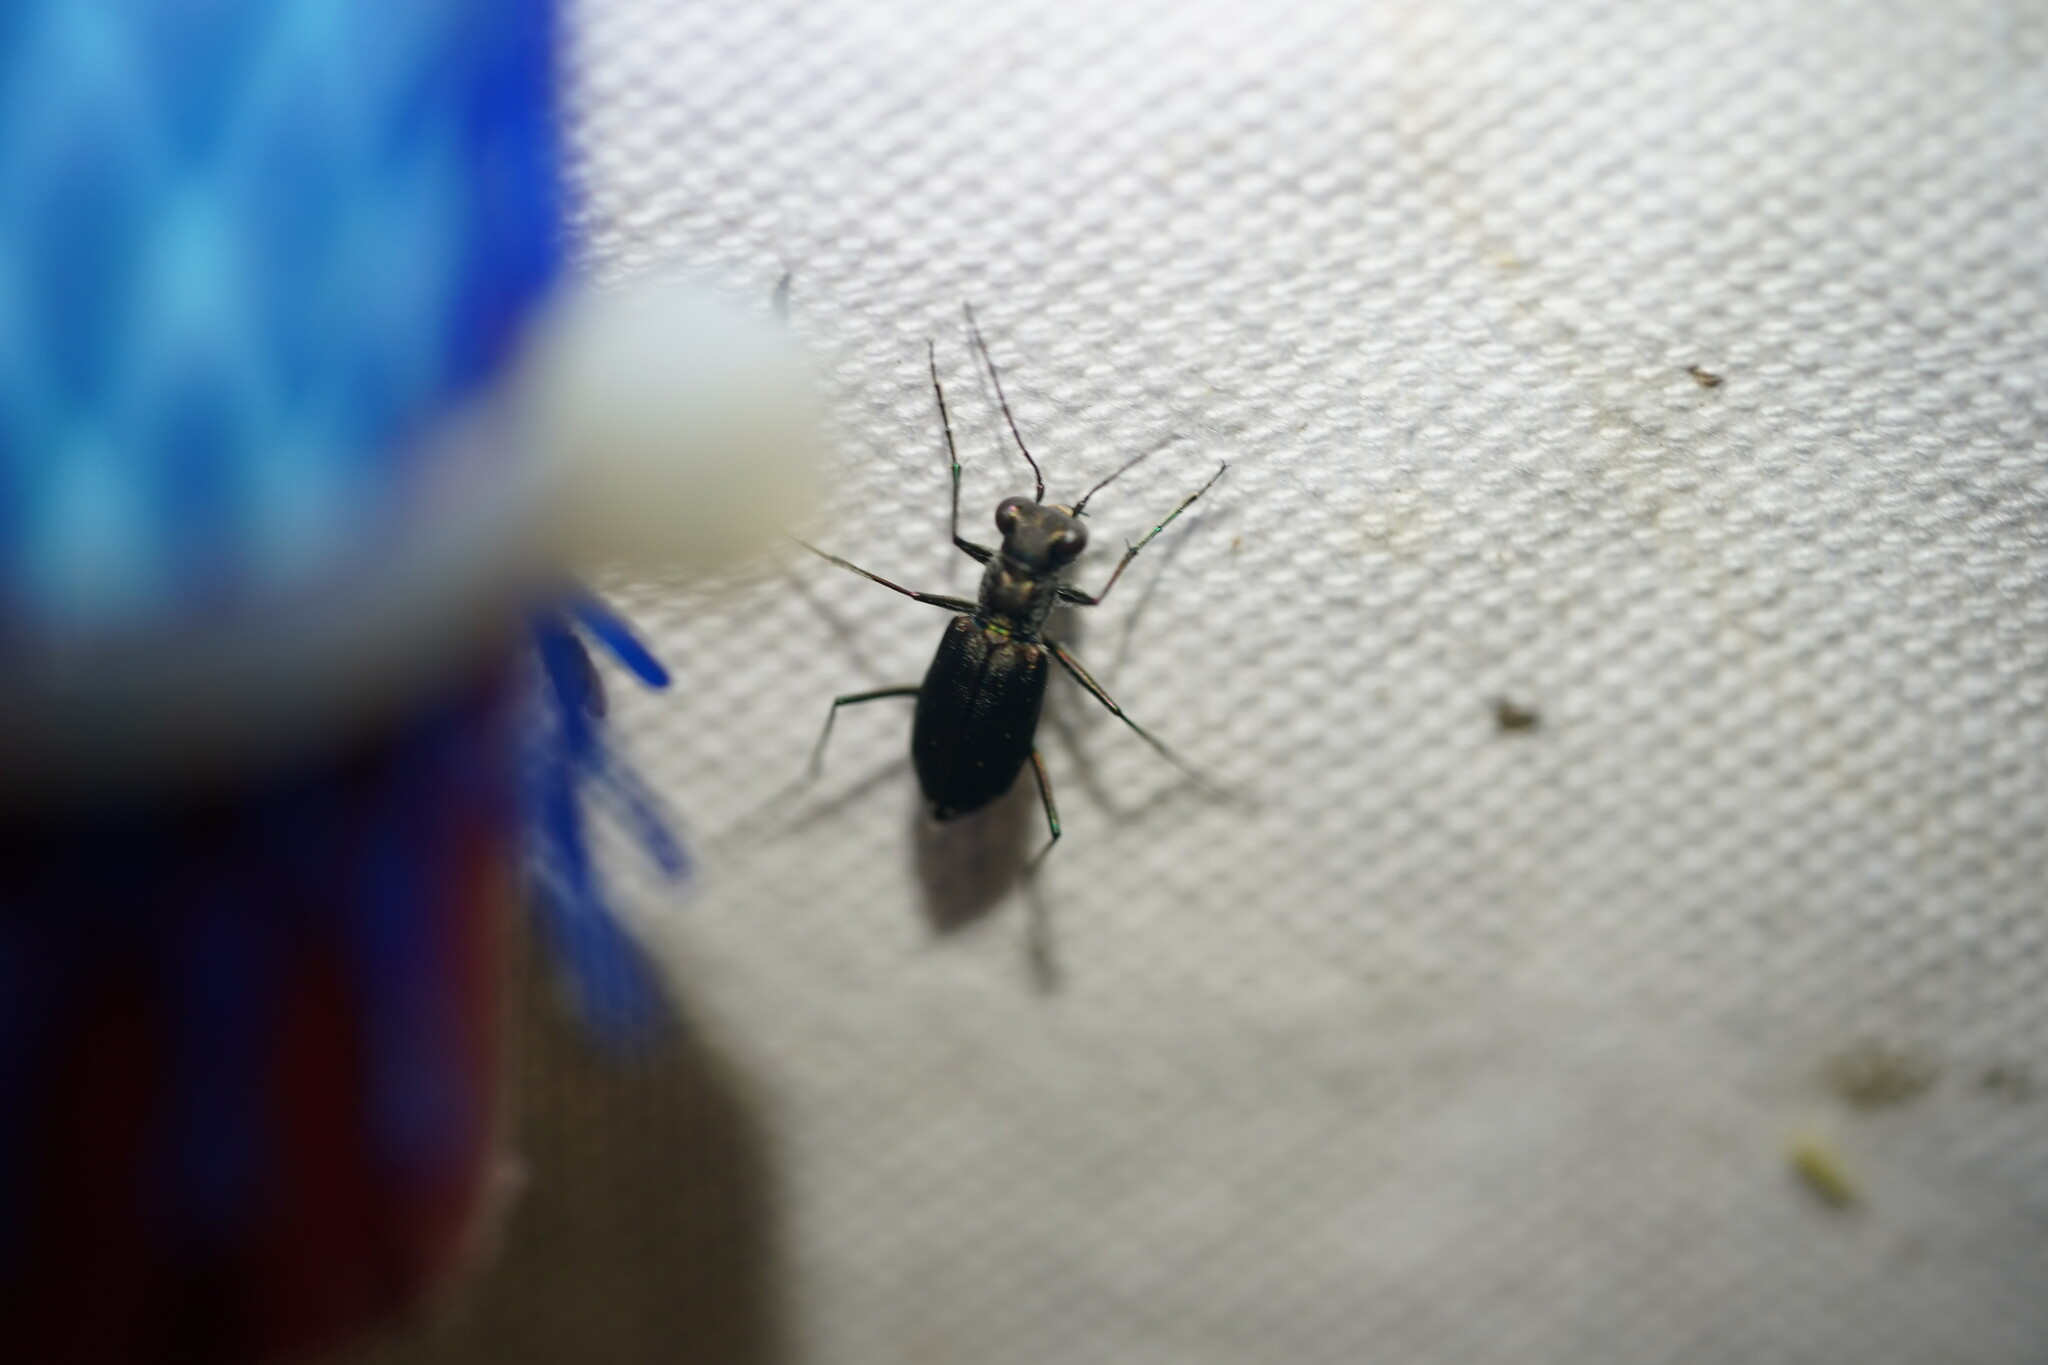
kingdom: Animalia
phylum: Arthropoda
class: Insecta
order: Coleoptera
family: Carabidae
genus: Cicindela
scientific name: Cicindela punctulata
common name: Punctured tiger beetle
